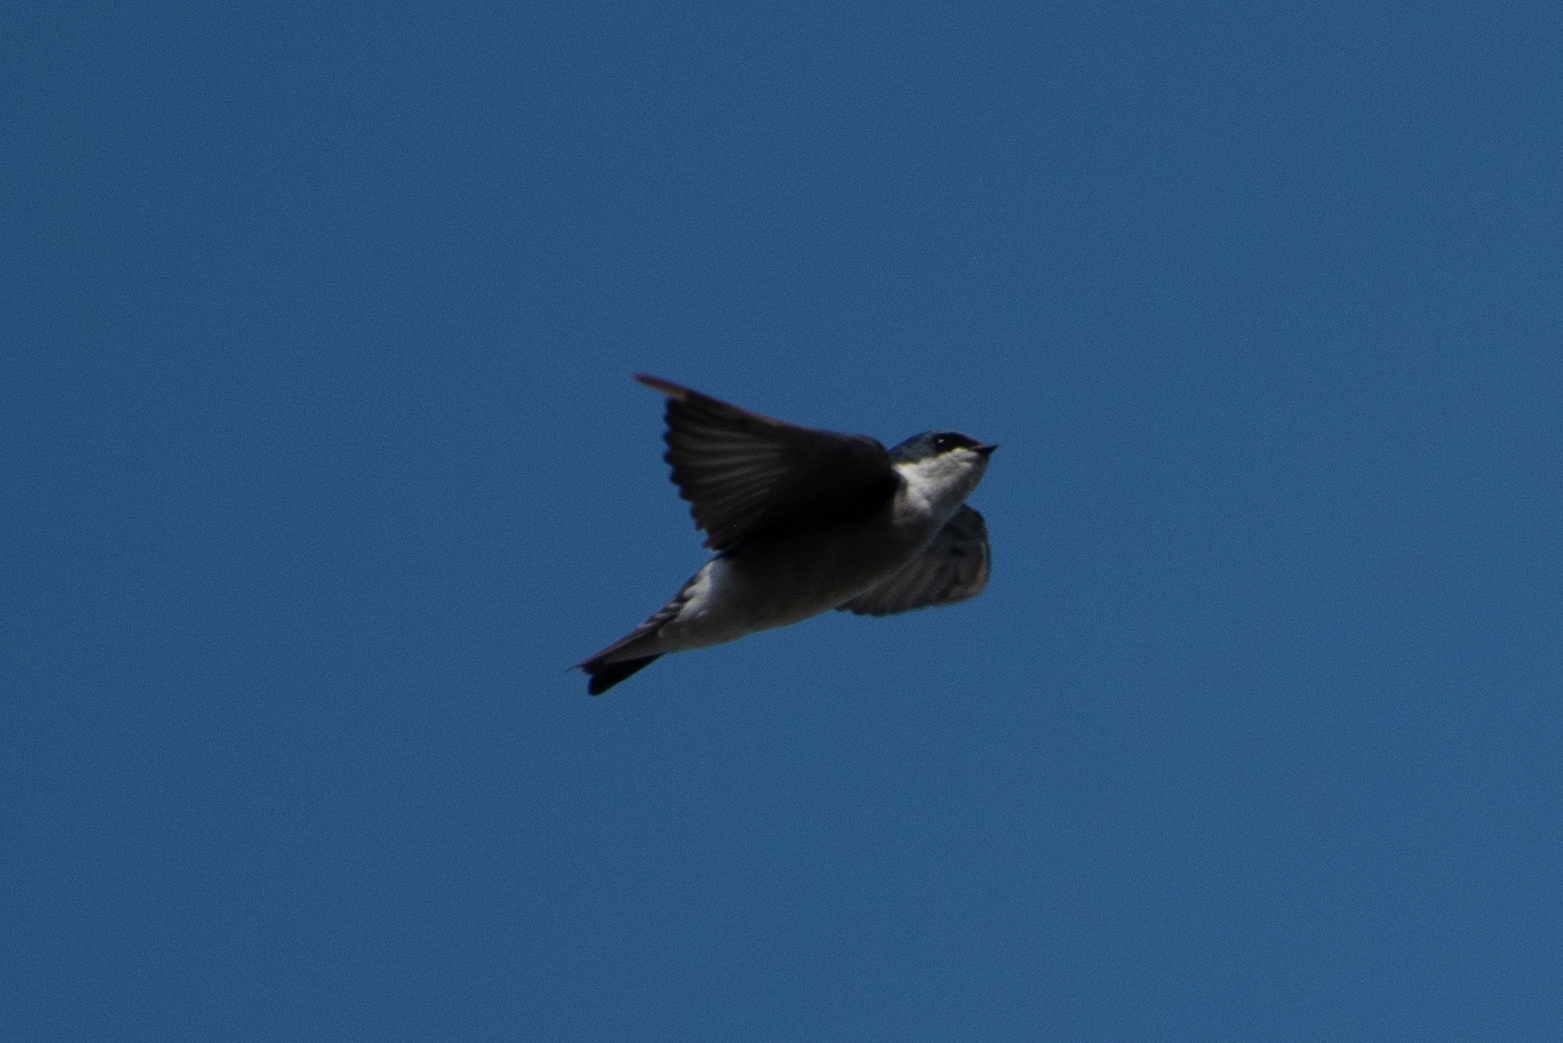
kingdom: Animalia
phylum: Chordata
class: Aves
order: Passeriformes
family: Hirundinidae
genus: Tachycineta
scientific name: Tachycineta bicolor
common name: Tree swallow
